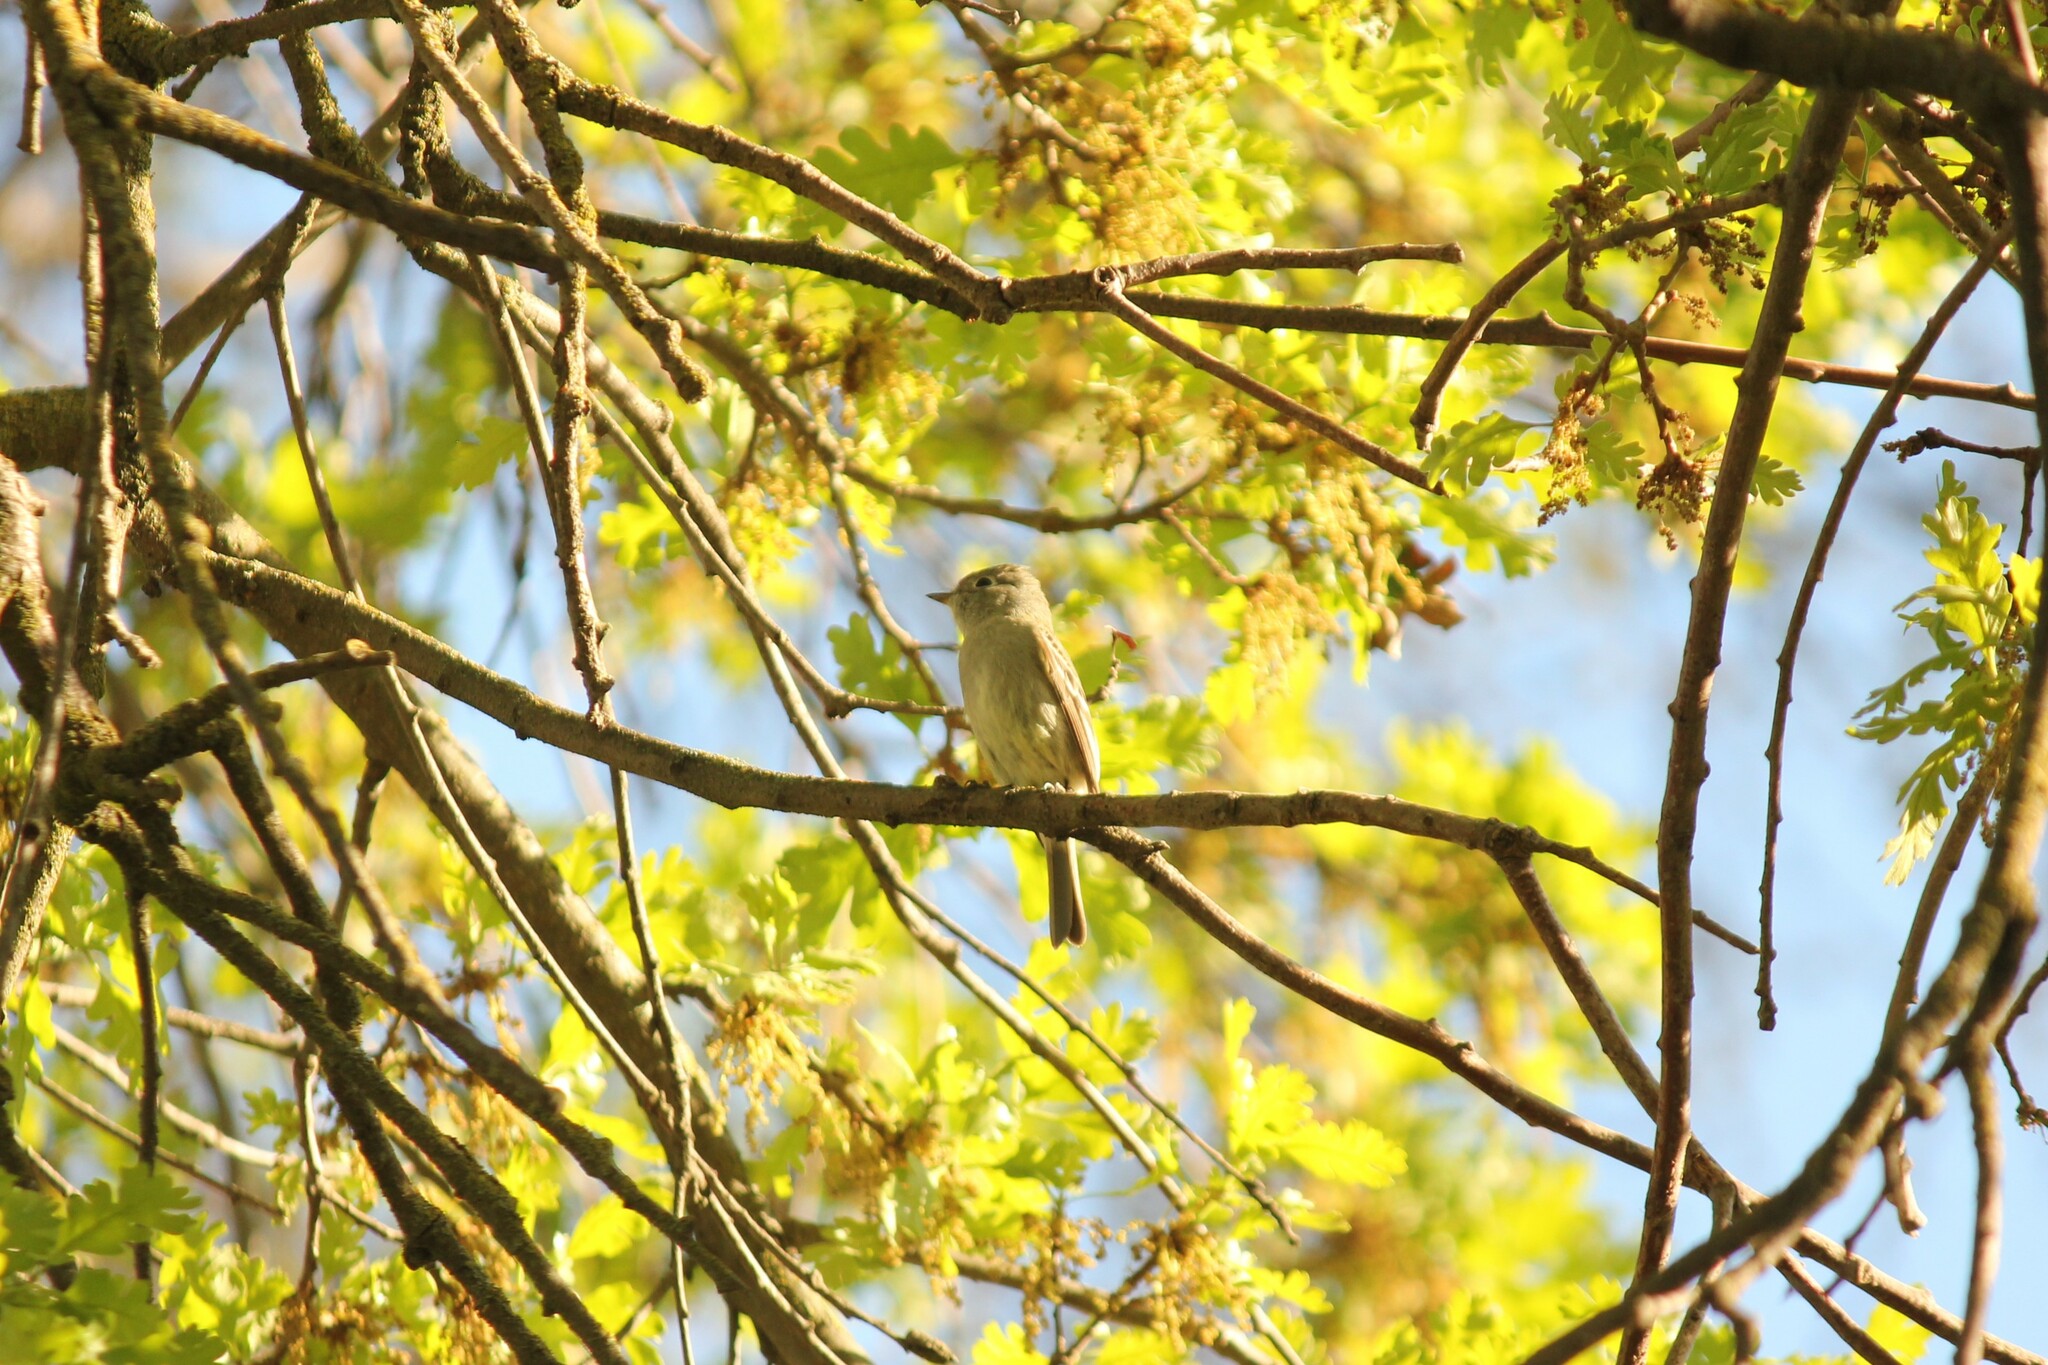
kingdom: Animalia
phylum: Chordata
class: Aves
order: Passeriformes
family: Tyrannidae
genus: Empidonax
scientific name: Empidonax hammondii
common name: Hammond's flycatcher
